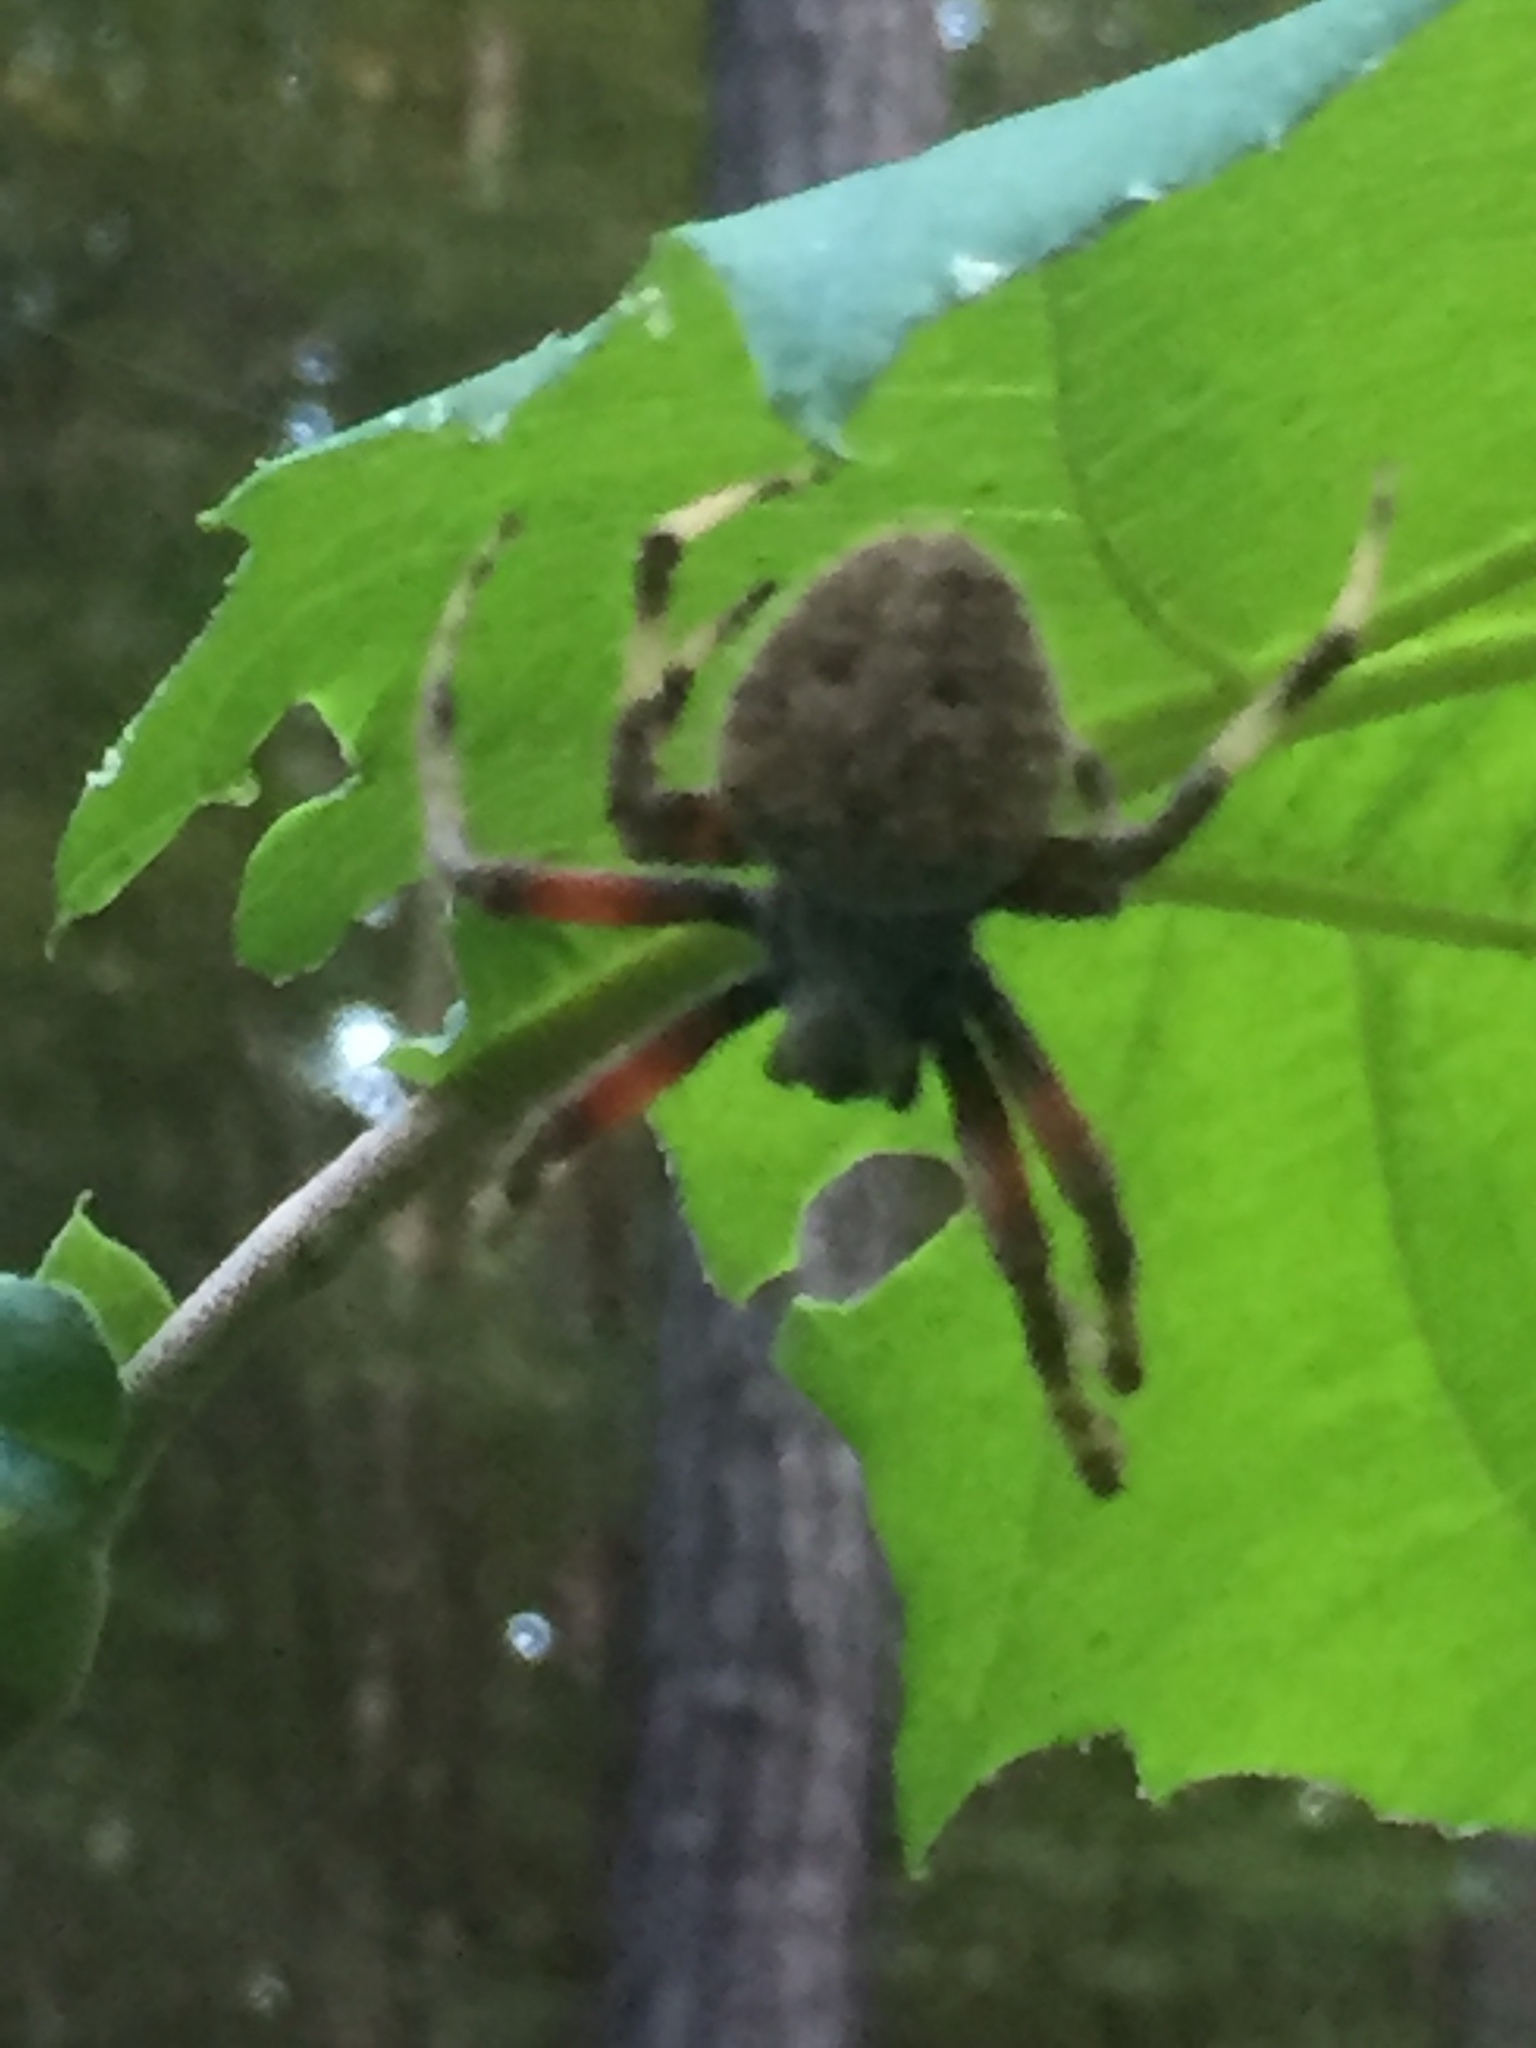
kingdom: Animalia
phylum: Arthropoda
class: Arachnida
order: Araneae
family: Araneidae
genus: Neoscona
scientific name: Neoscona crucifera
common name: Spotted orbweaver
